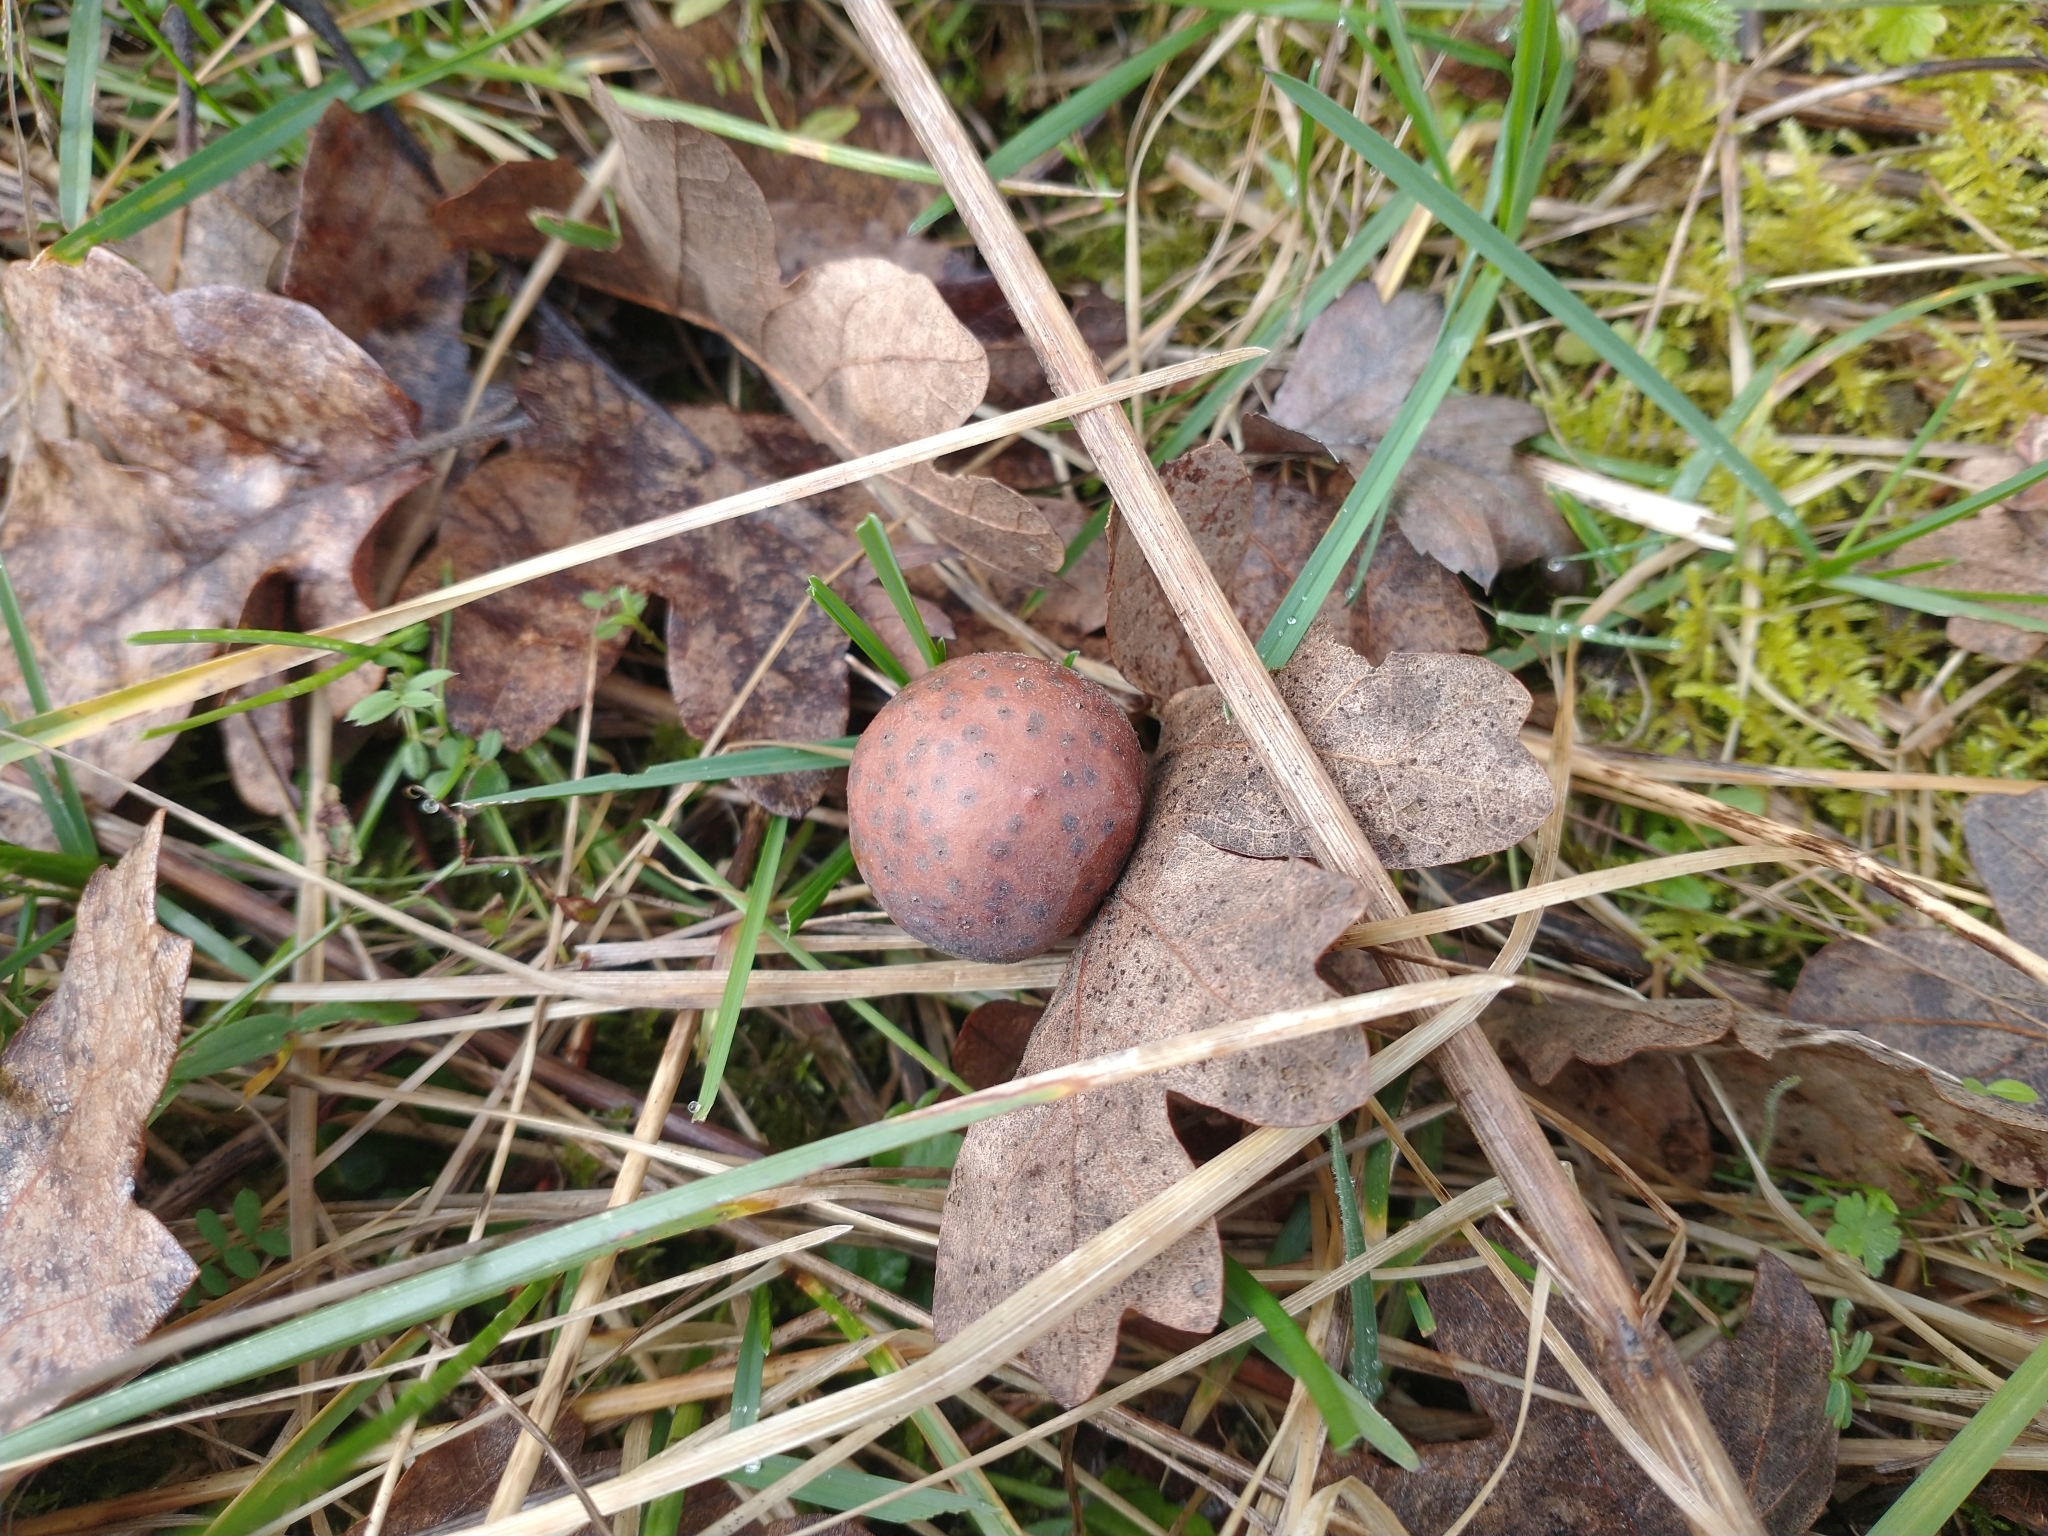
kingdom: Animalia
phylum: Arthropoda
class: Insecta
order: Hymenoptera
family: Cynipidae
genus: Cynips
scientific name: Cynips
